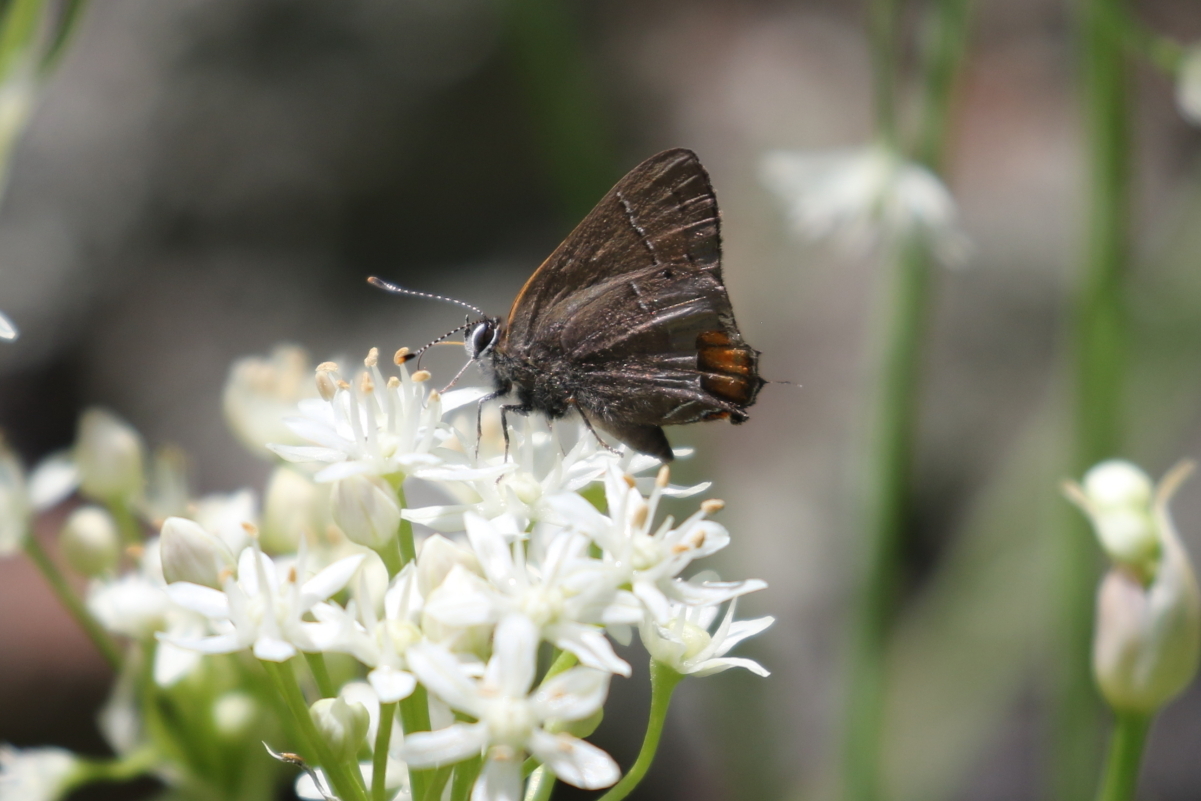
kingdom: Animalia
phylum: Arthropoda
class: Insecta
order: Lepidoptera
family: Lycaenidae
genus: Fixsenia
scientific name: Fixsenia favonius
